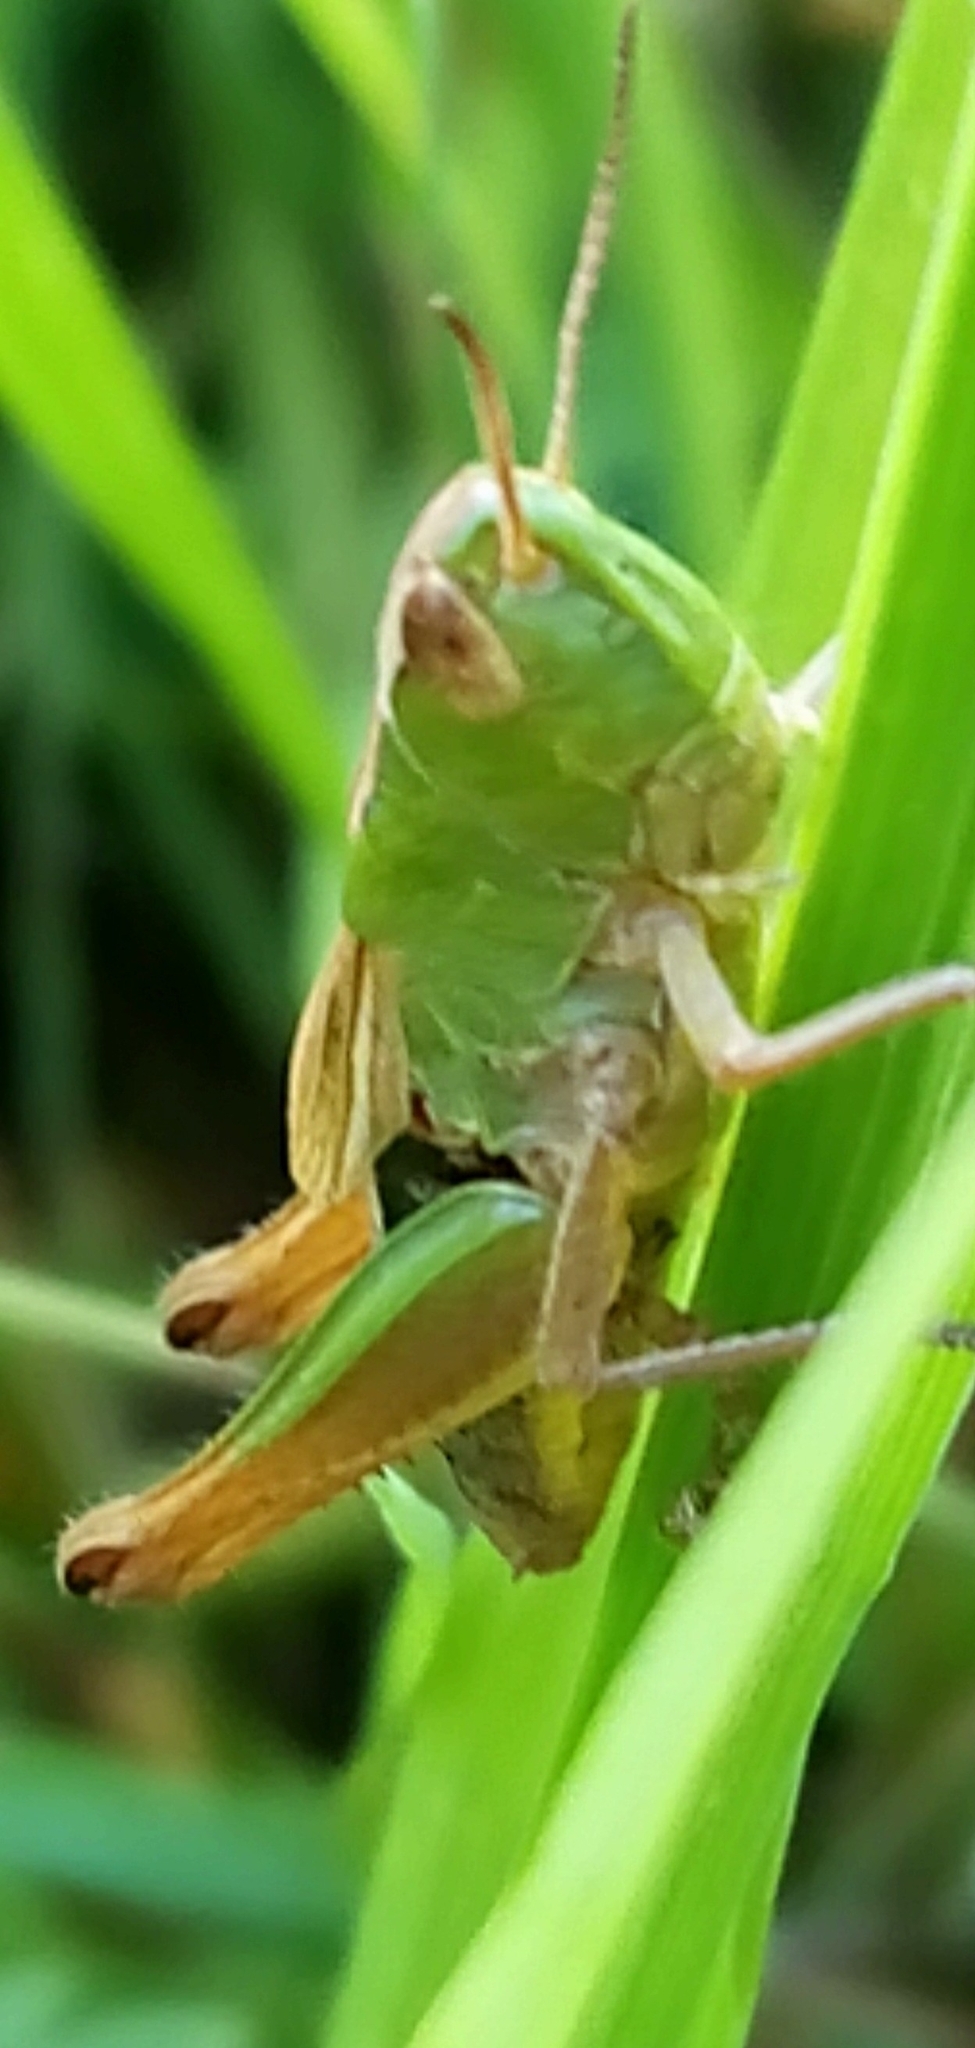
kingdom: Animalia
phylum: Arthropoda
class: Insecta
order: Orthoptera
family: Acrididae
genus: Pseudochorthippus
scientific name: Pseudochorthippus parallelus
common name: Meadow grasshopper
